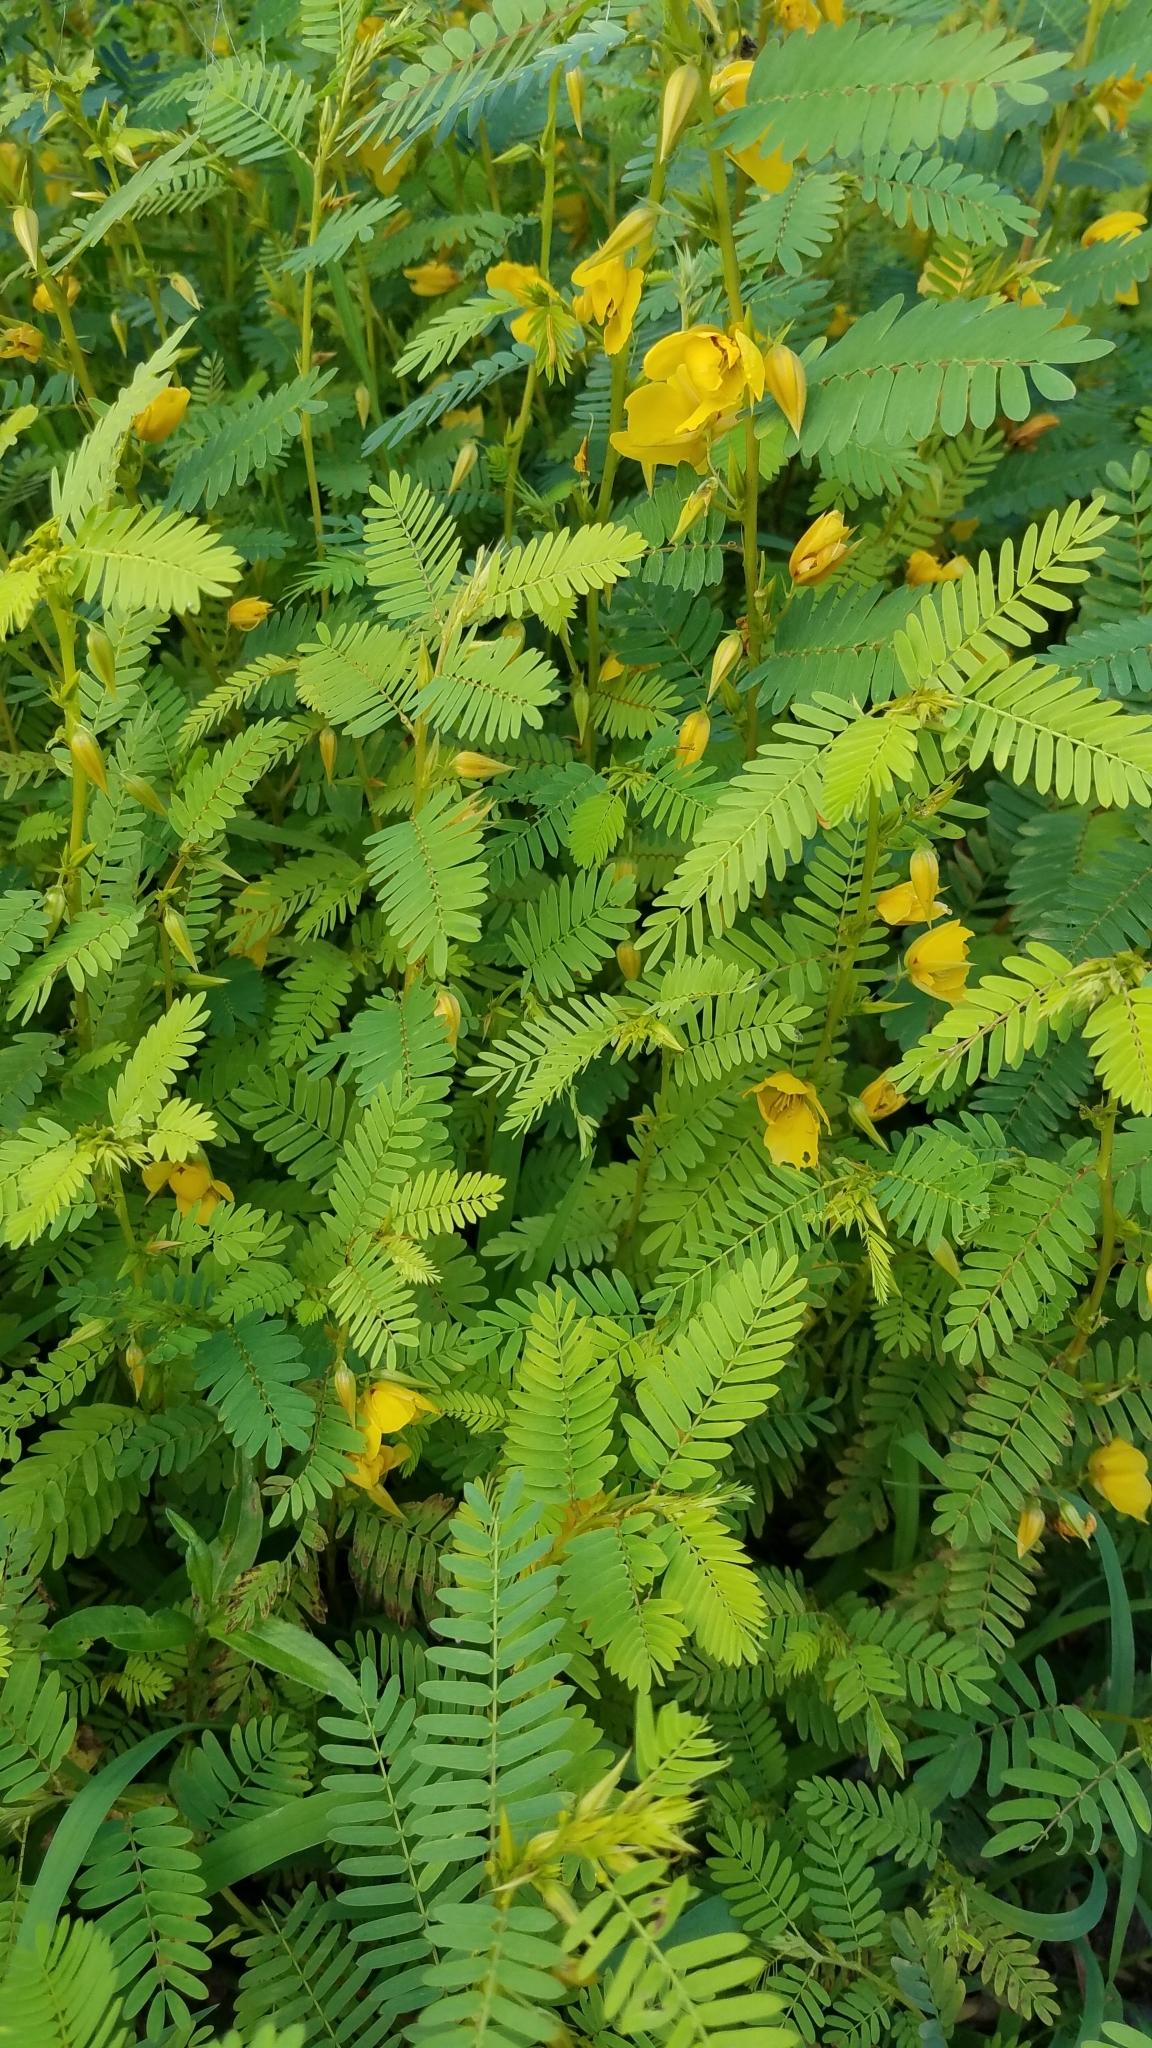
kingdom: Plantae
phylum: Tracheophyta
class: Magnoliopsida
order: Fabales
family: Fabaceae
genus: Chamaecrista
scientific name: Chamaecrista fasciculata
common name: Golden cassia
